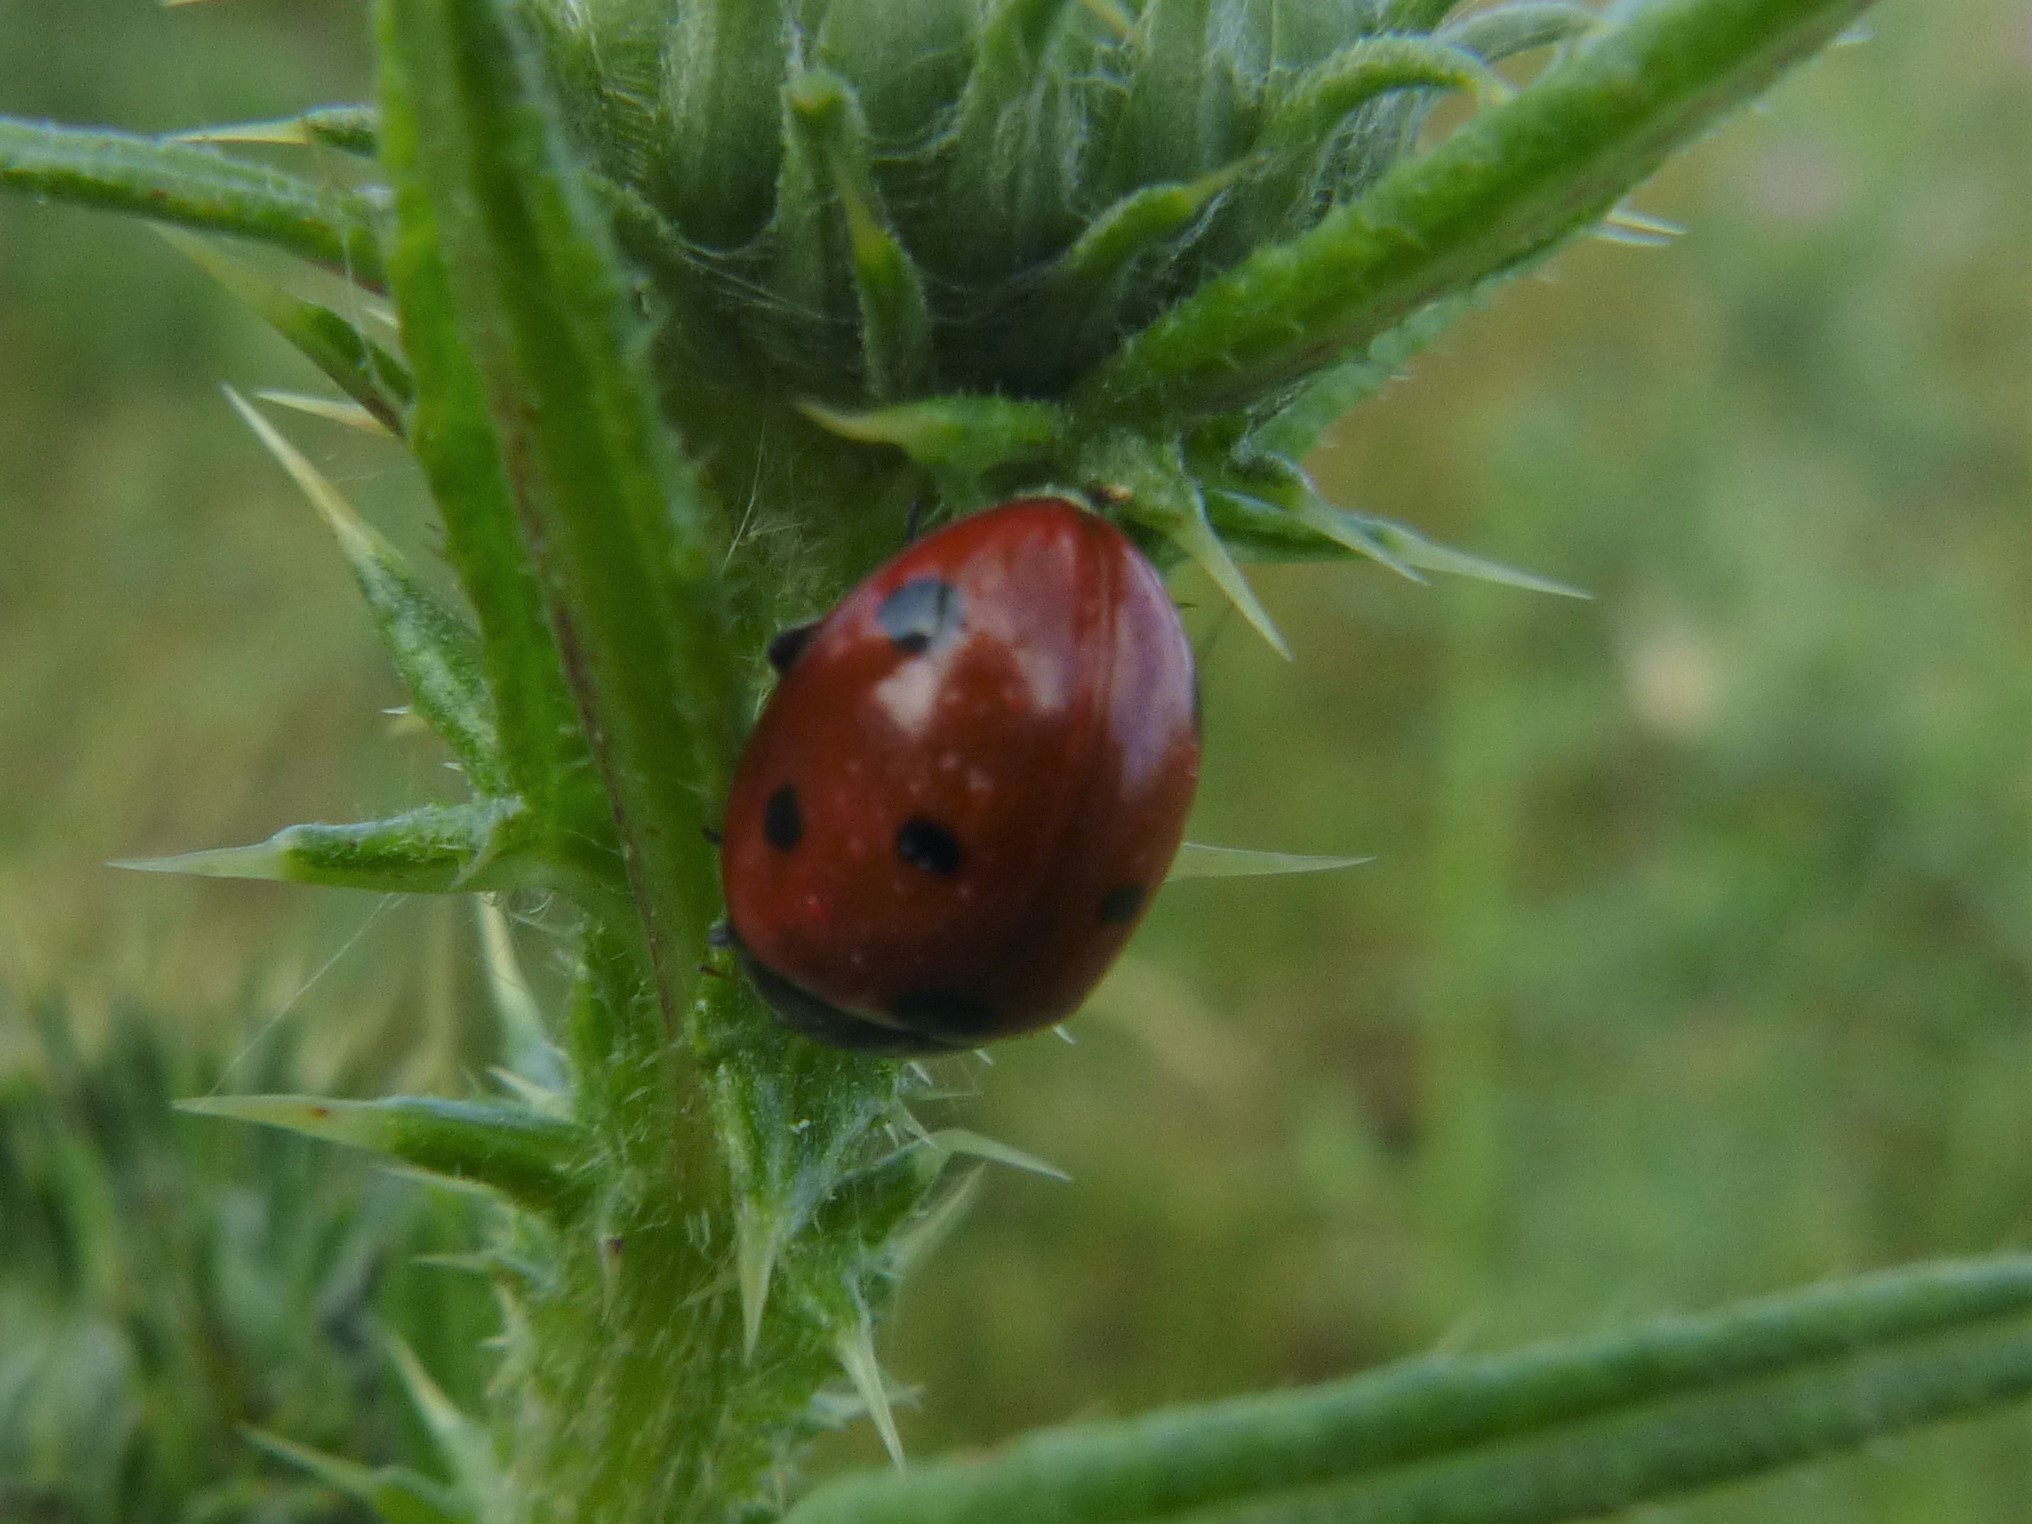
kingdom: Animalia
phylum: Arthropoda
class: Insecta
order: Coleoptera
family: Coccinellidae
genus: Coccinella
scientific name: Coccinella septempunctata
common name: Sevenspotted lady beetle
